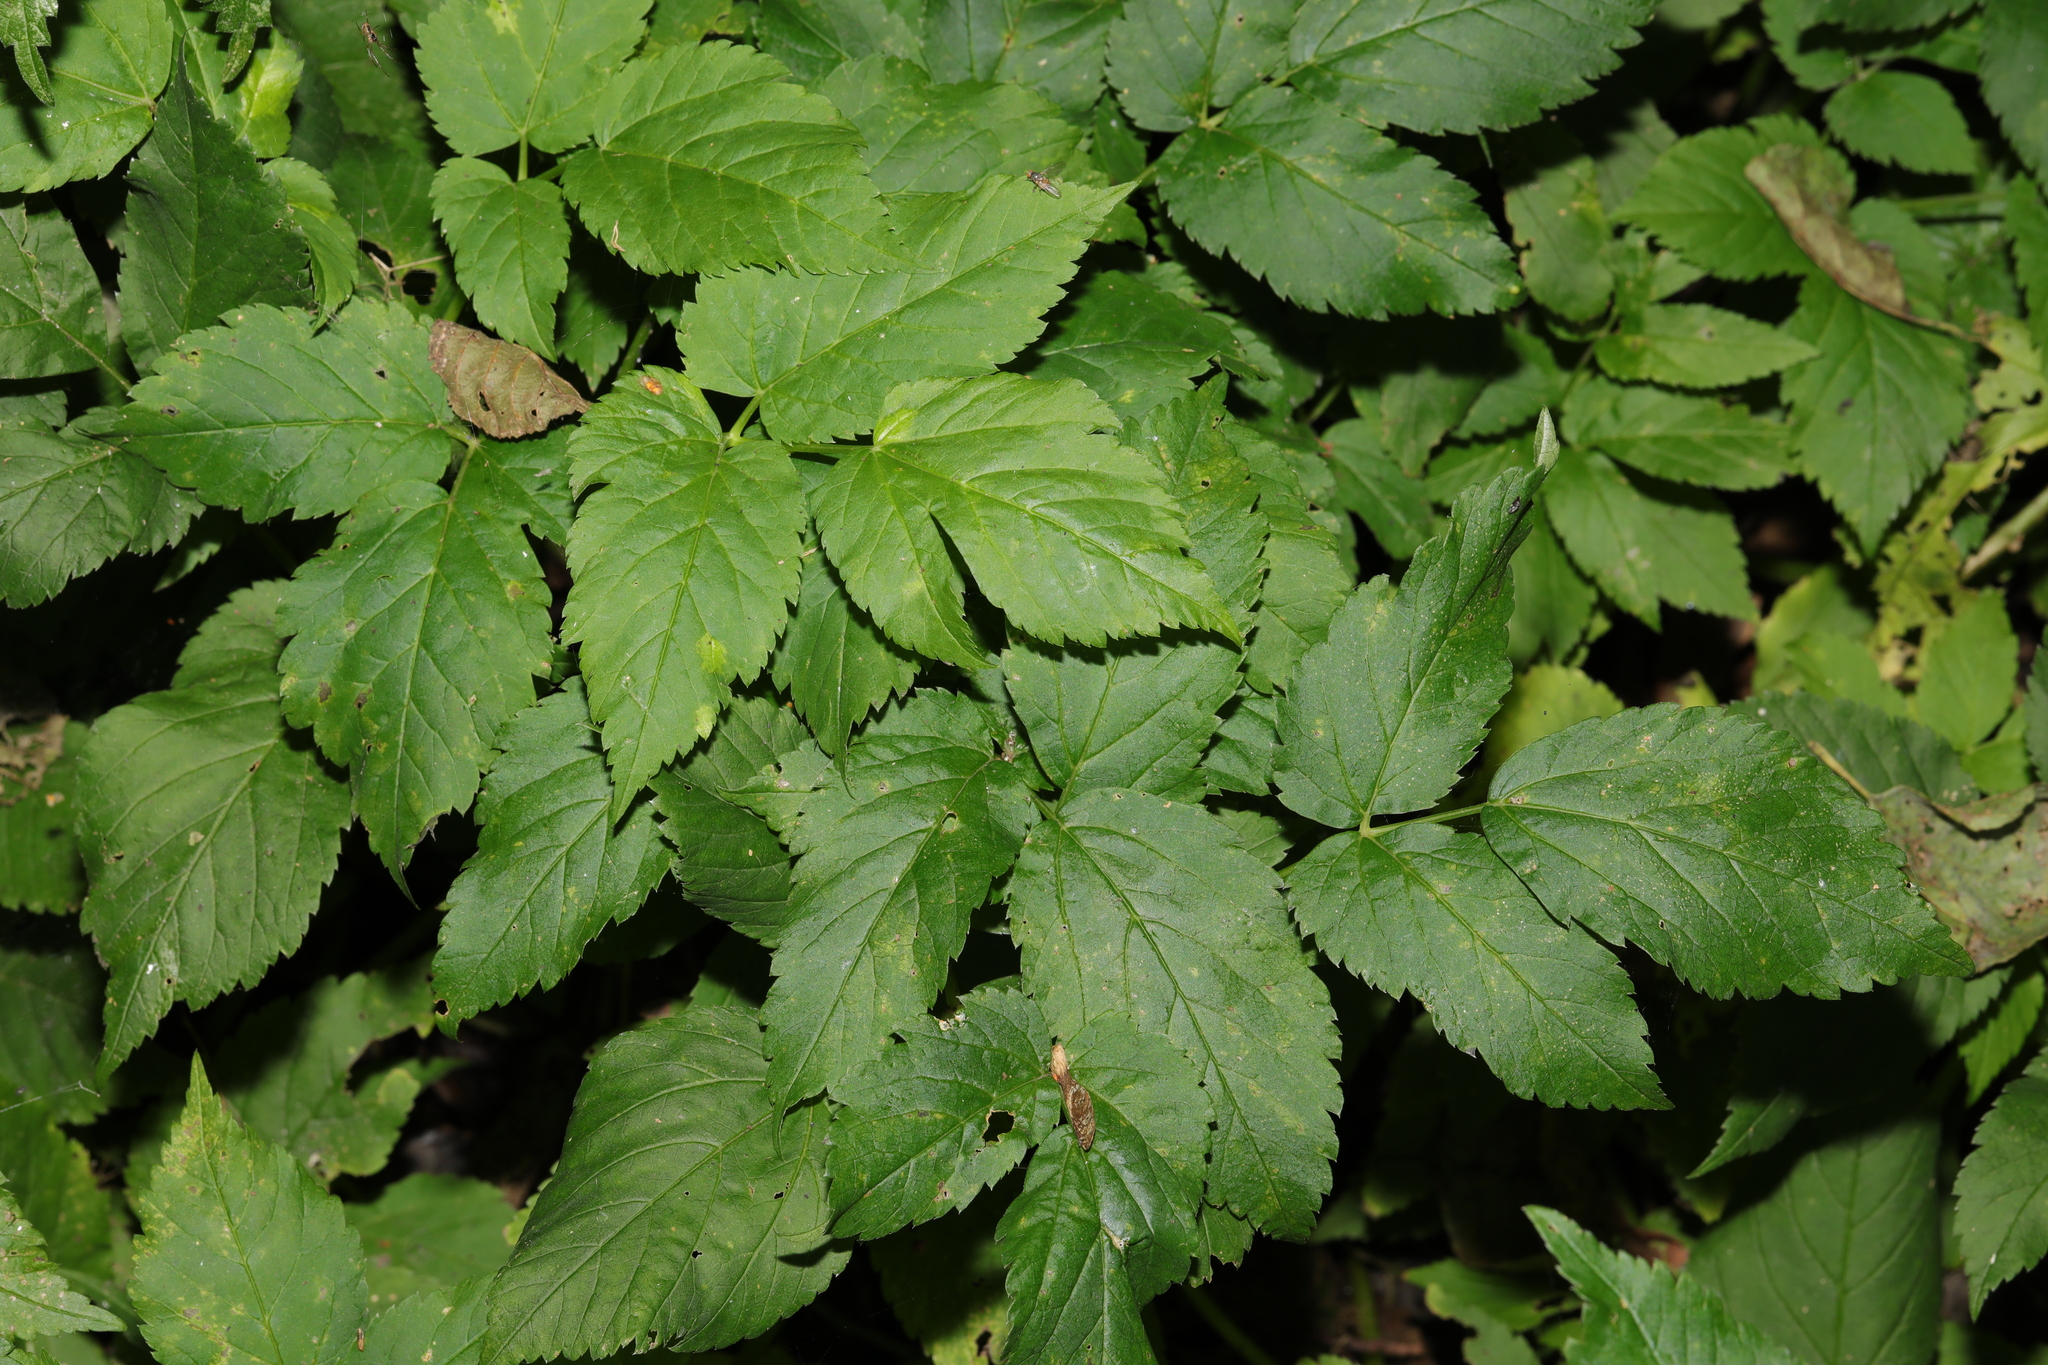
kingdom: Plantae
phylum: Tracheophyta
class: Magnoliopsida
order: Apiales
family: Apiaceae
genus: Aegopodium
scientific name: Aegopodium podagraria
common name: Ground-elder
